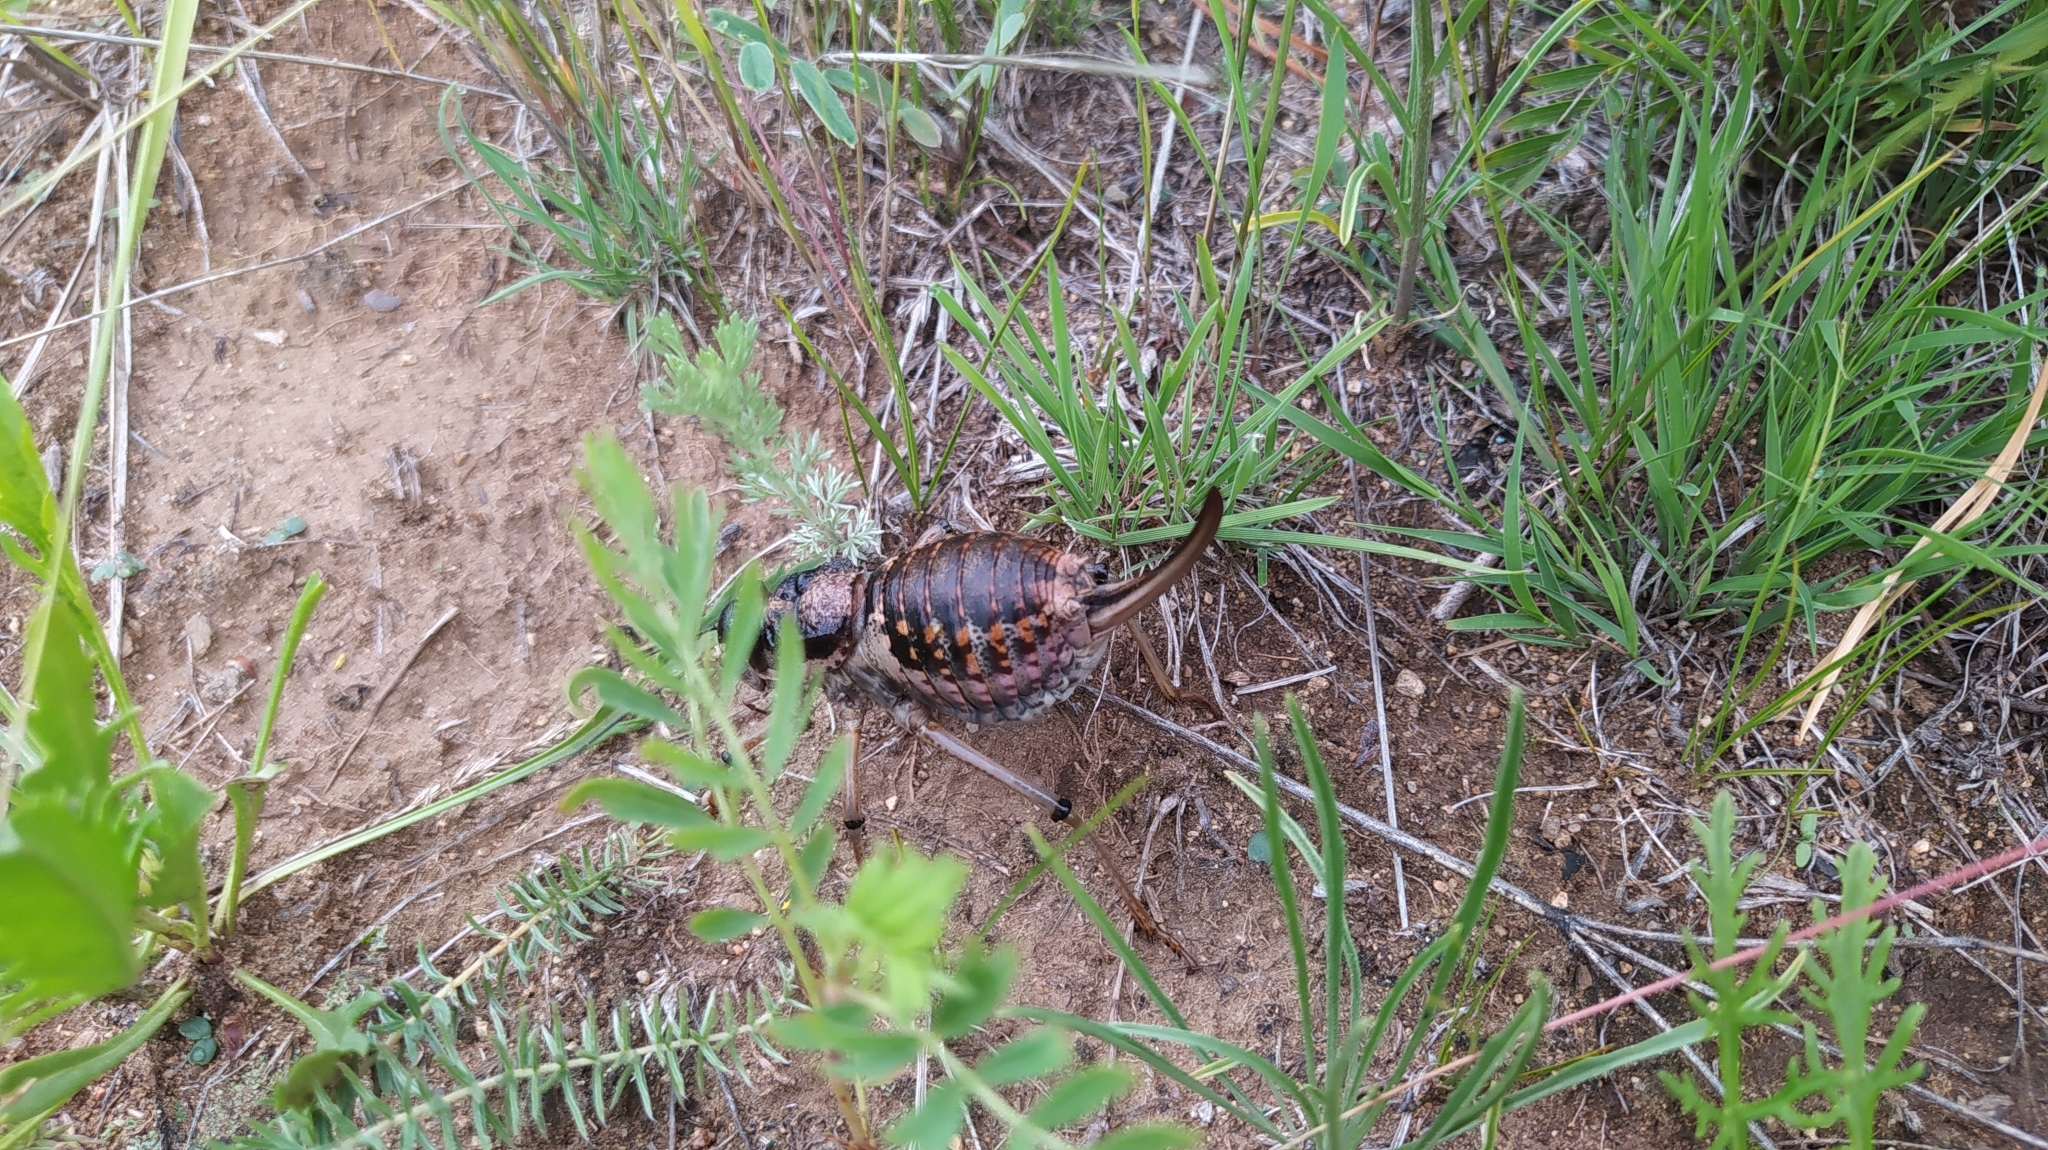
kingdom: Animalia
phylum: Arthropoda
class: Insecta
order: Orthoptera
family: Tettigoniidae
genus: Deracantha
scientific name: Deracantha onos
